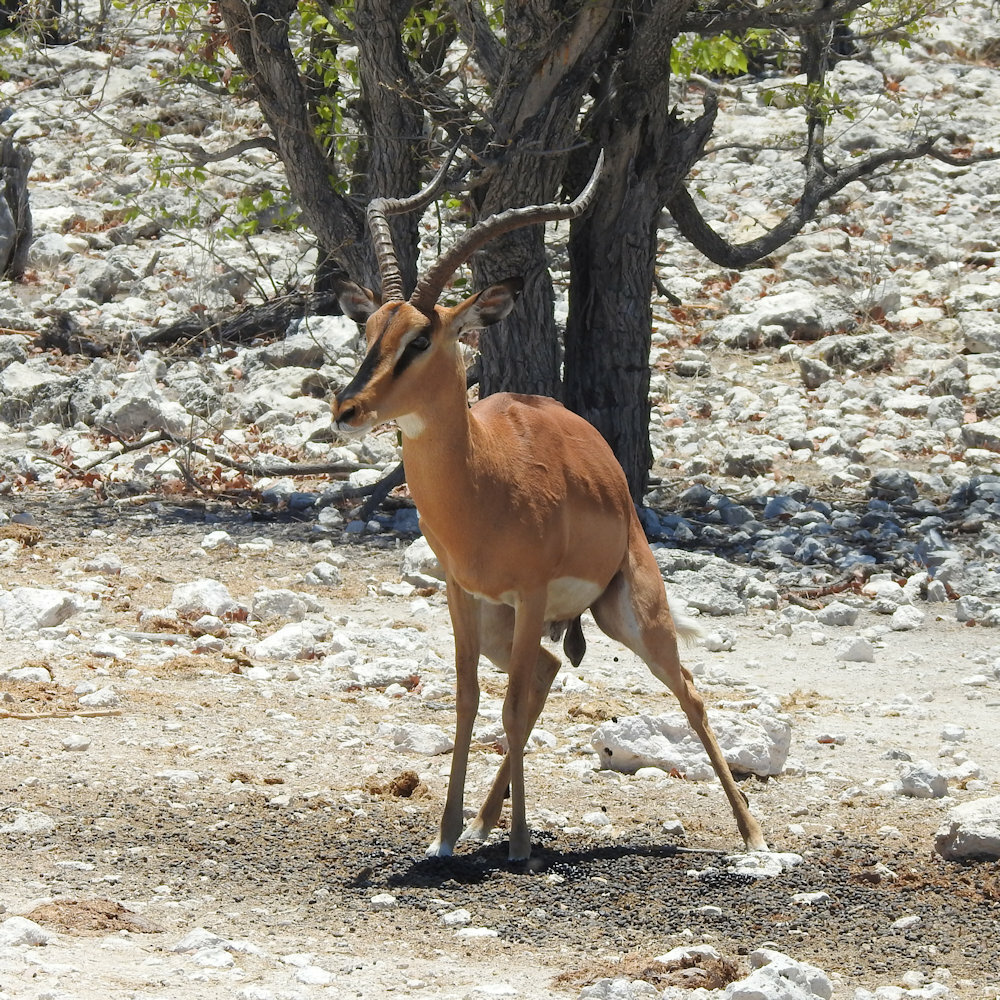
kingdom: Animalia
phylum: Chordata
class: Mammalia
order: Artiodactyla
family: Bovidae
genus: Aepyceros
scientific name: Aepyceros melampus
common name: Impala
